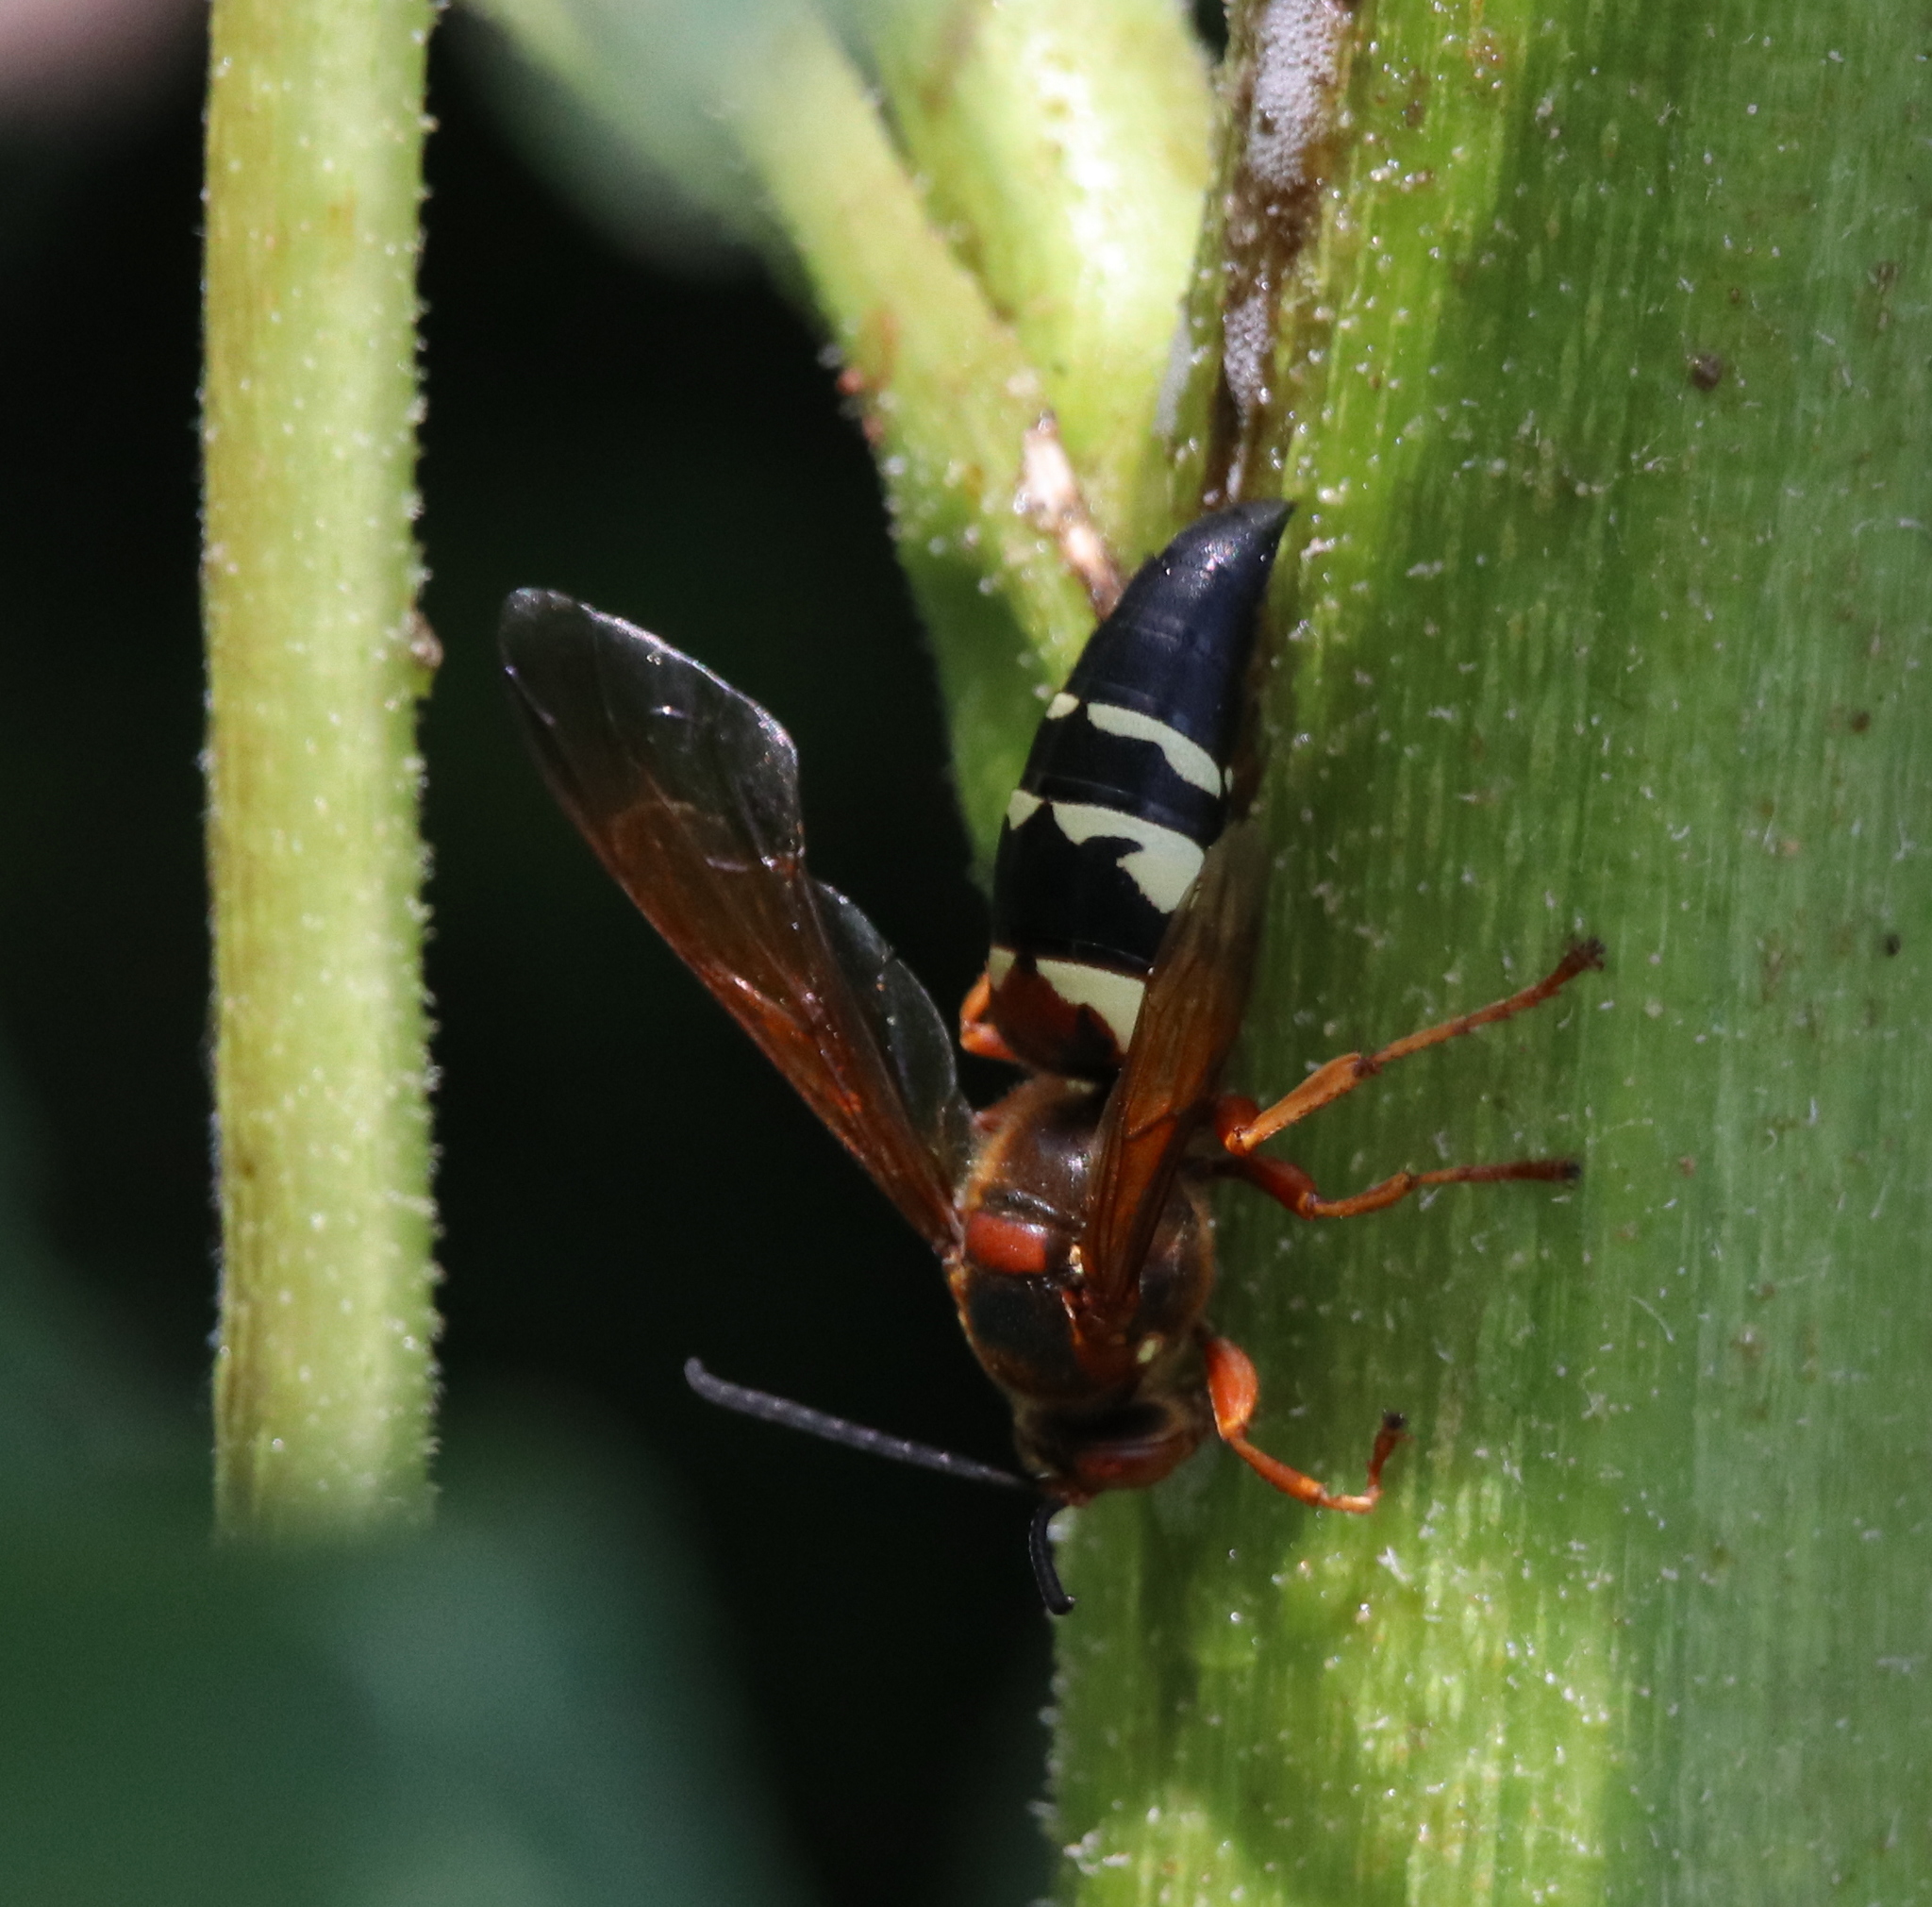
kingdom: Animalia
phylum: Arthropoda
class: Insecta
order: Hymenoptera
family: Crabronidae
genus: Sphecius
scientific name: Sphecius speciosus
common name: Cicada killer
